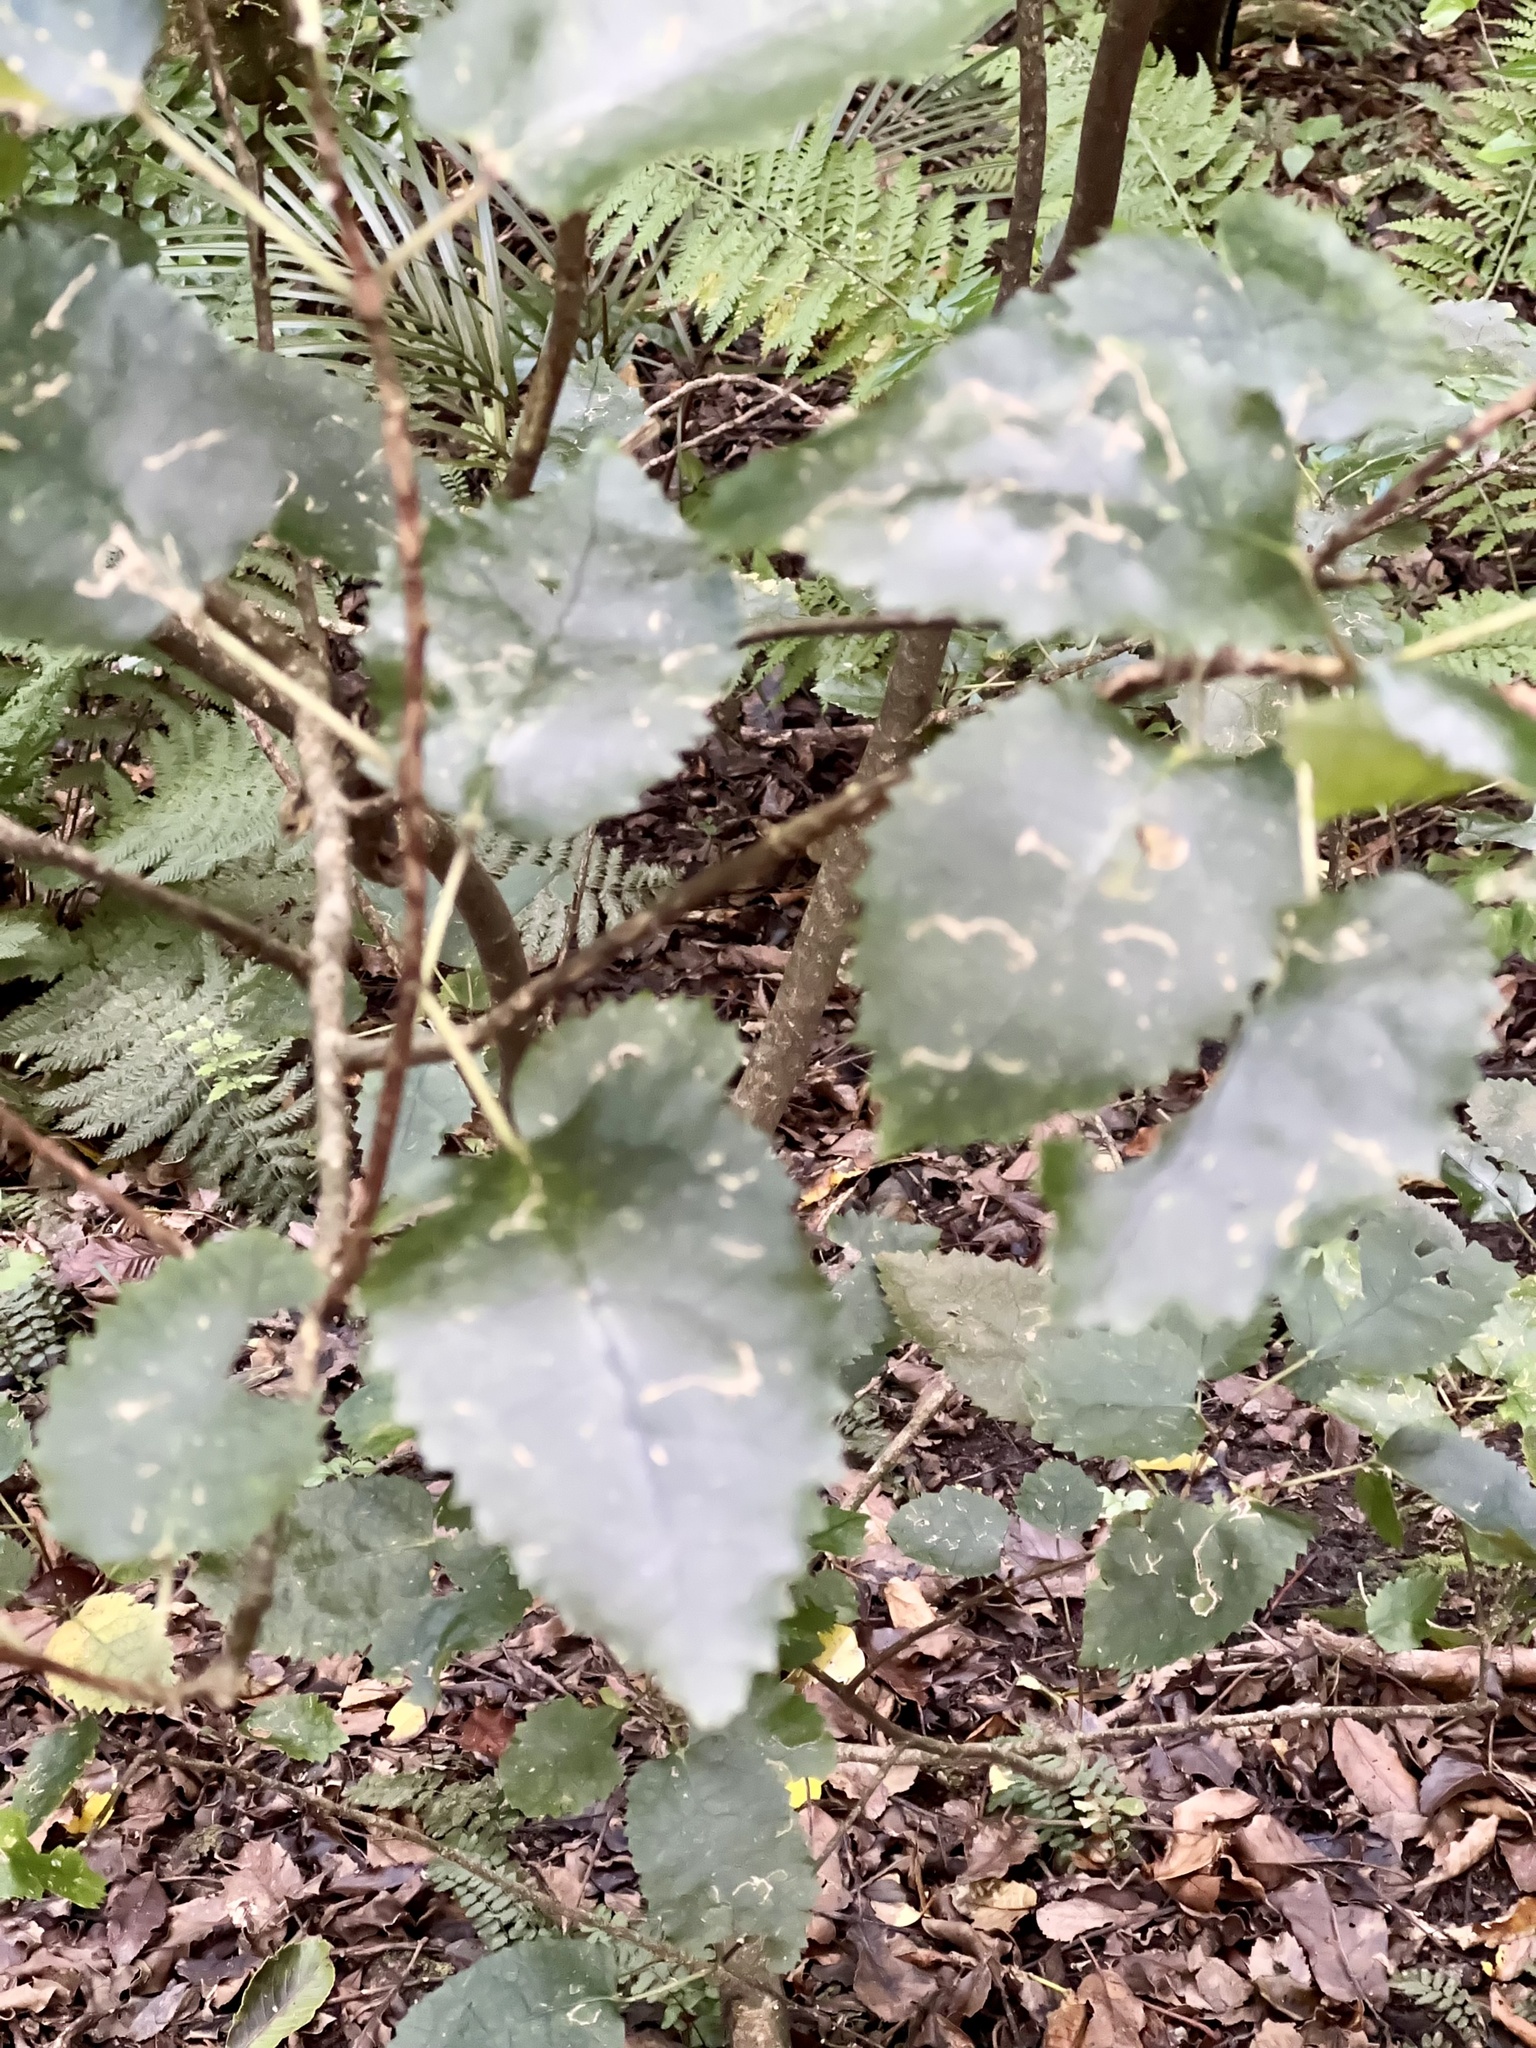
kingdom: Plantae
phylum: Tracheophyta
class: Magnoliopsida
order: Malvales
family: Malvaceae
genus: Hoheria
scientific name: Hoheria populnea
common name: Lacebark
